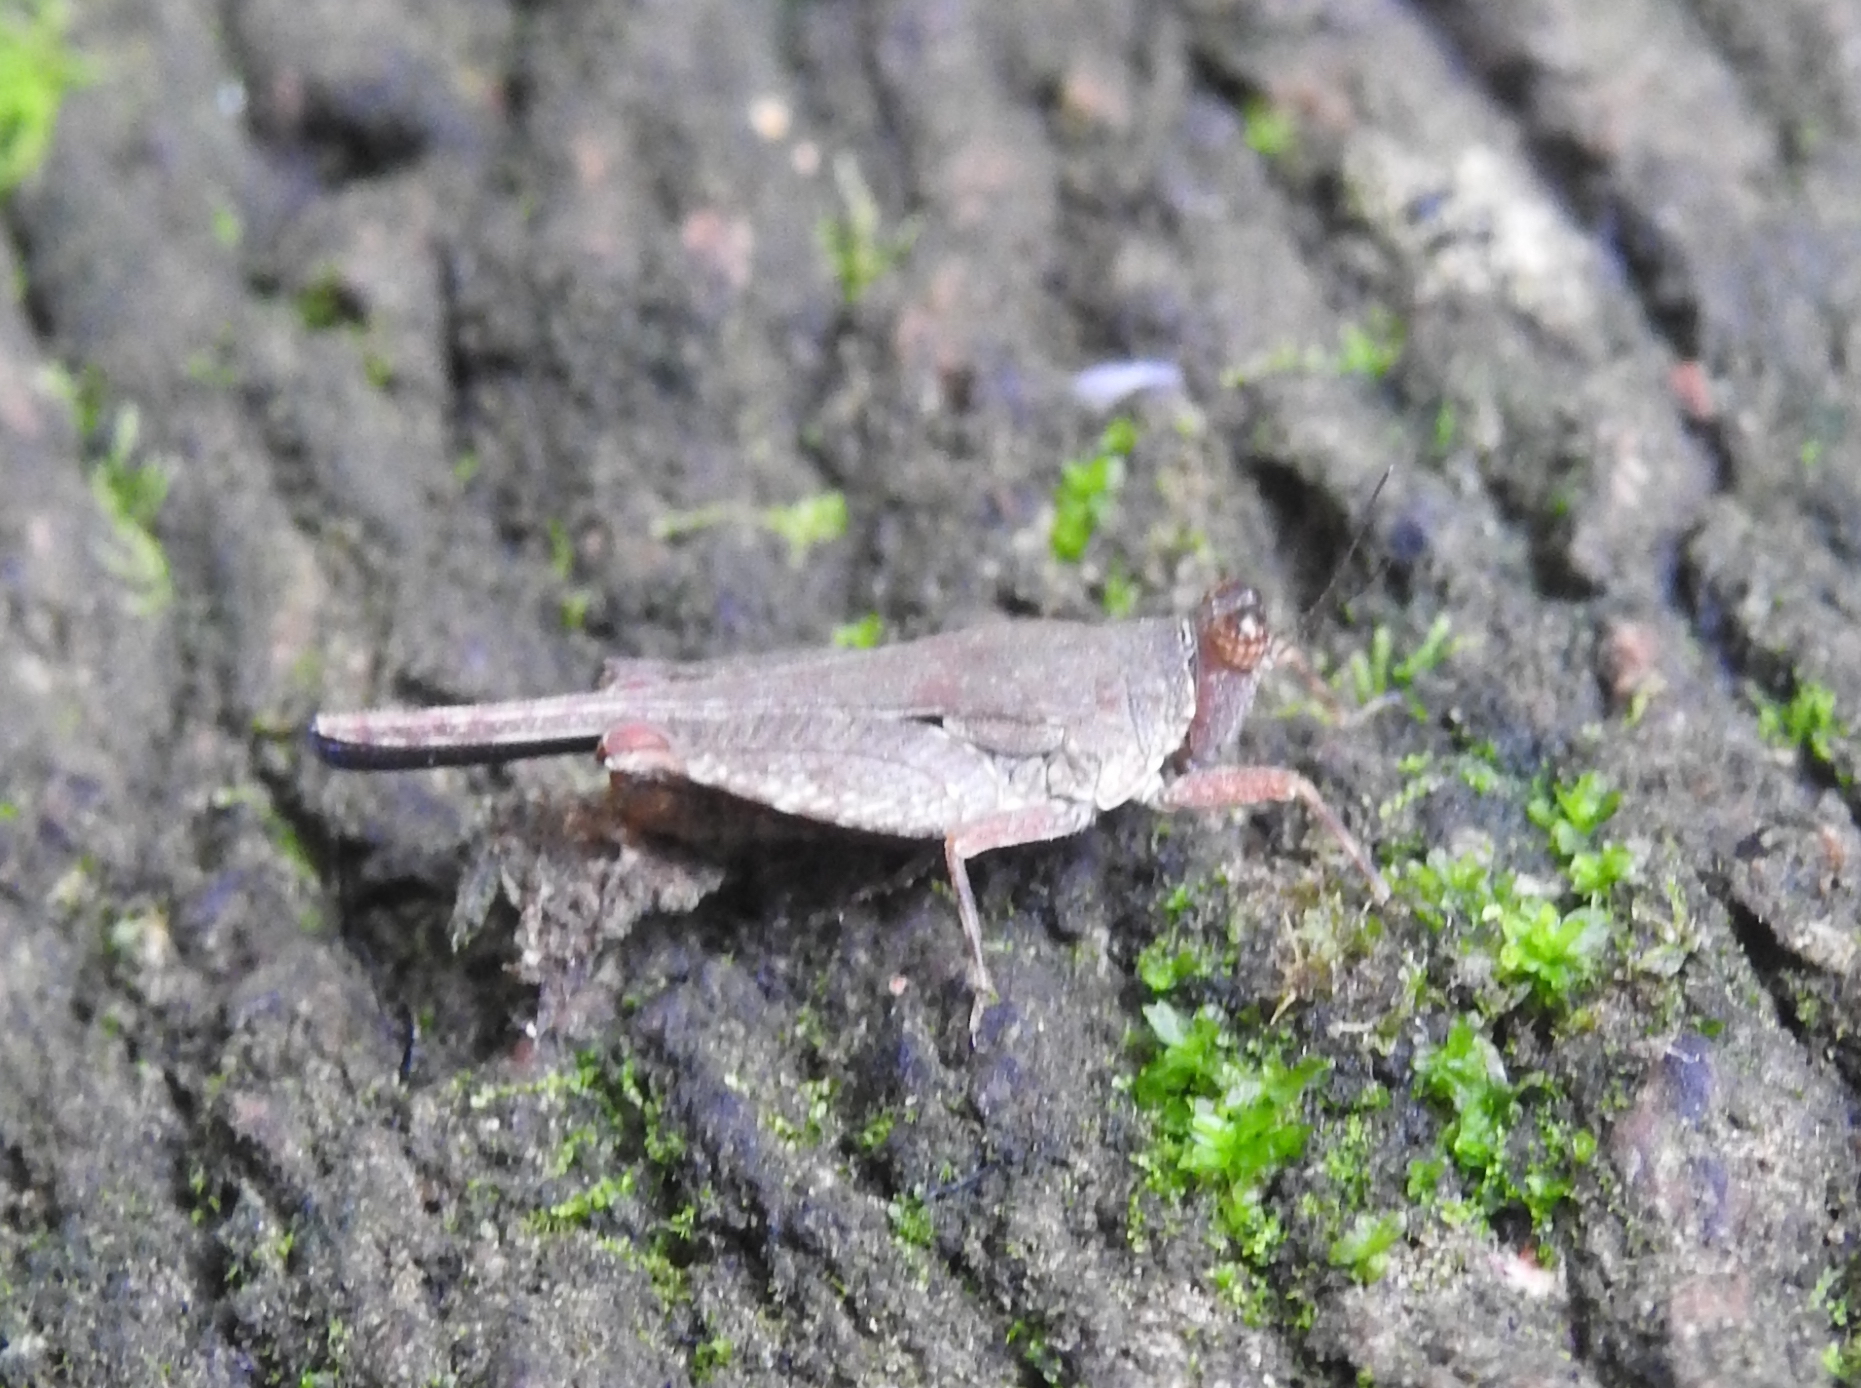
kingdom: Animalia
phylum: Arthropoda
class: Insecta
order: Orthoptera
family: Tetrigidae
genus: Systolederus
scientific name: Systolederus cinereus
